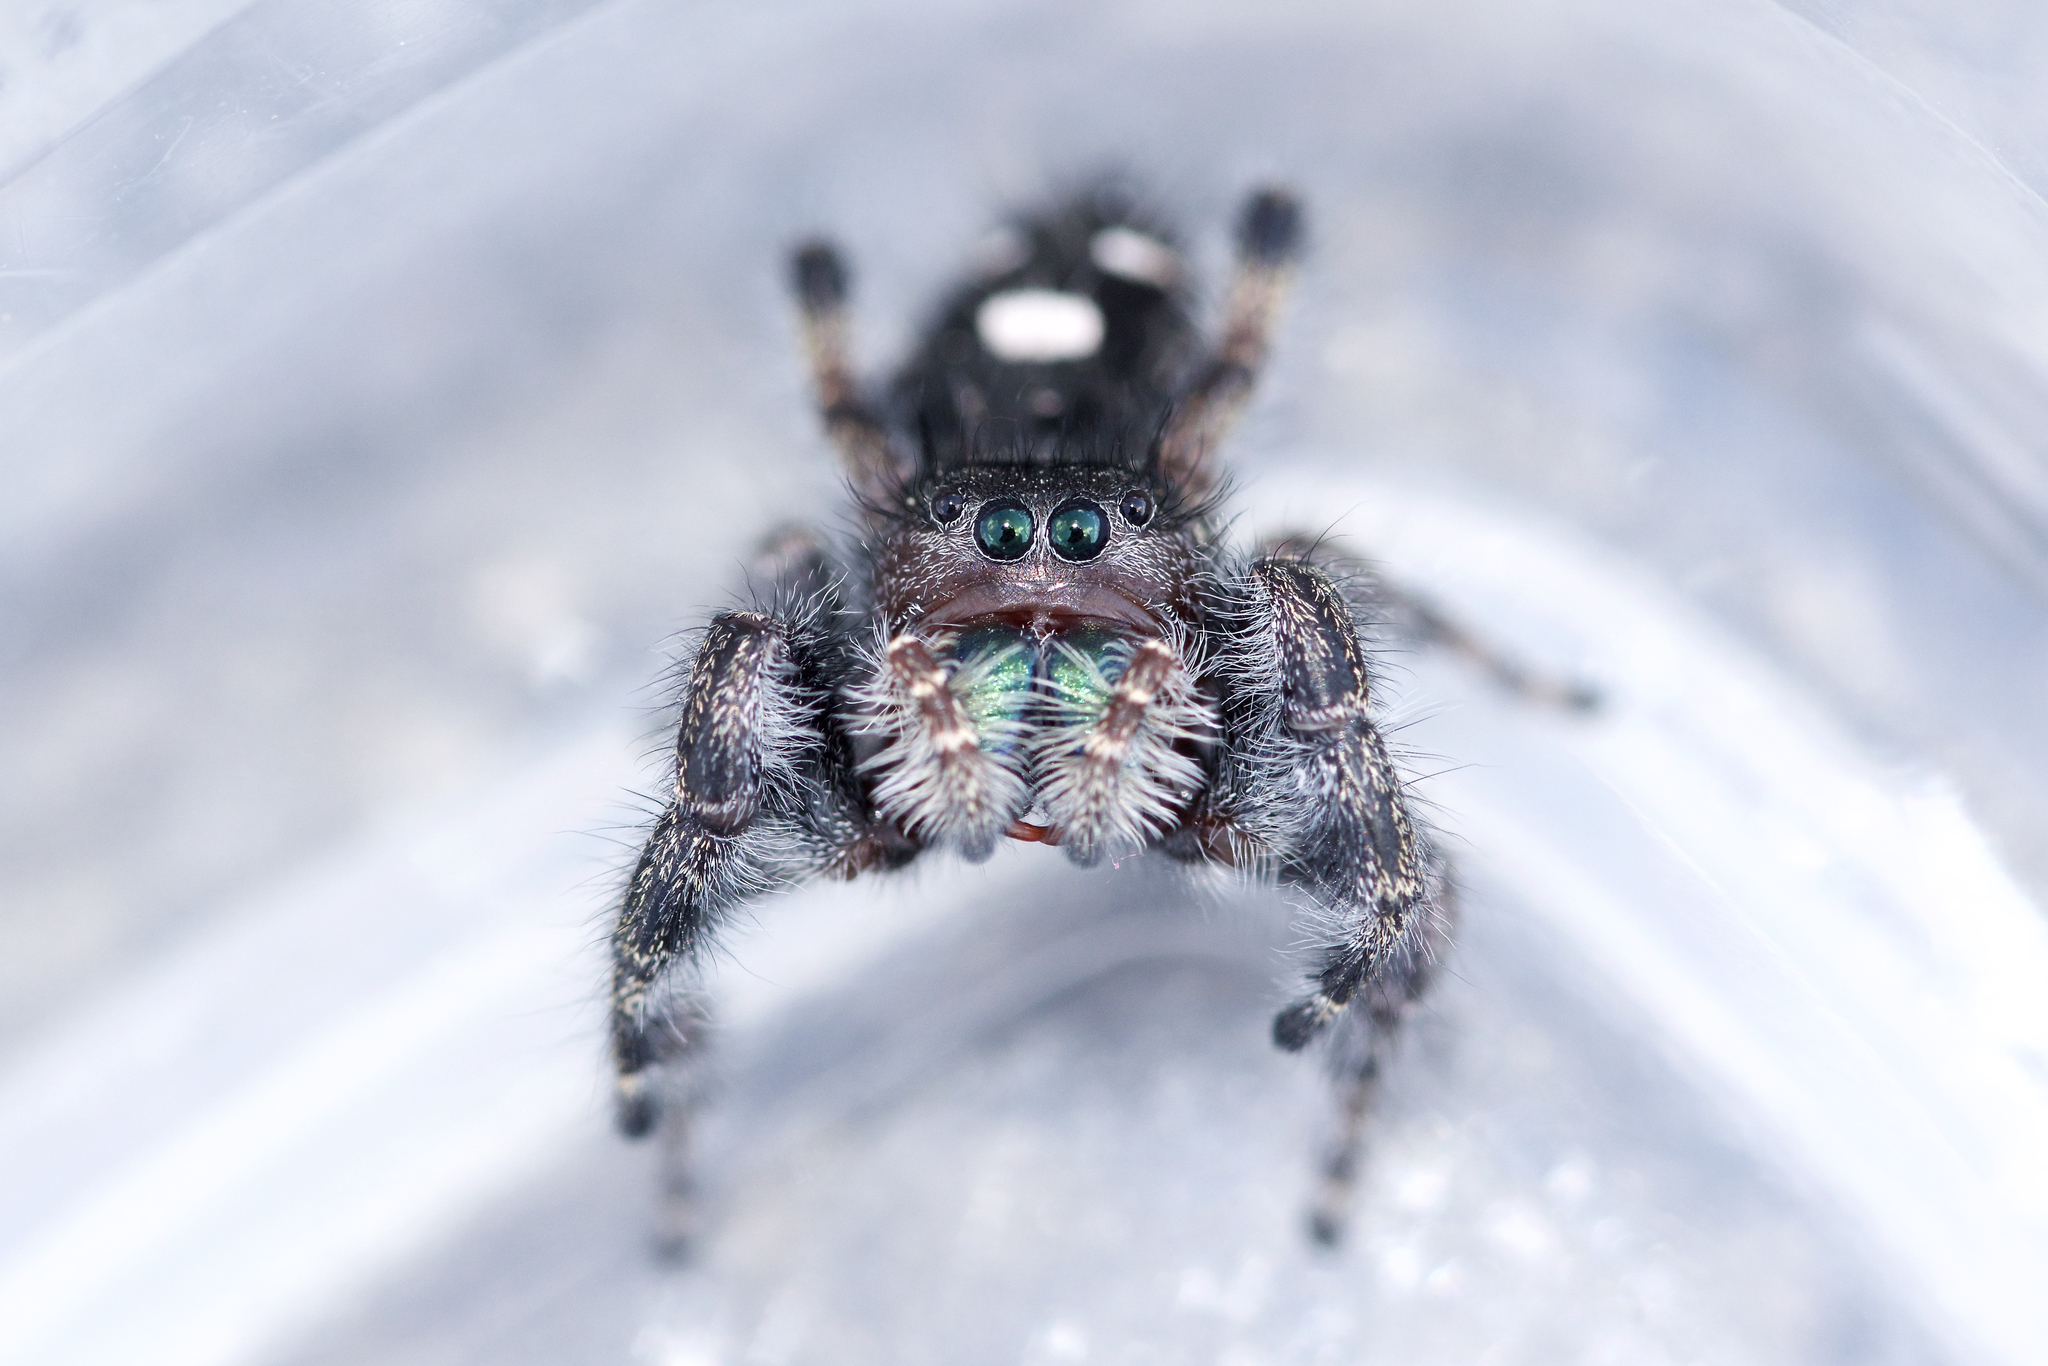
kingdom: Animalia
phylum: Arthropoda
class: Arachnida
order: Araneae
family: Salticidae
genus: Phidippus
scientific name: Phidippus audax
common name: Bold jumper
